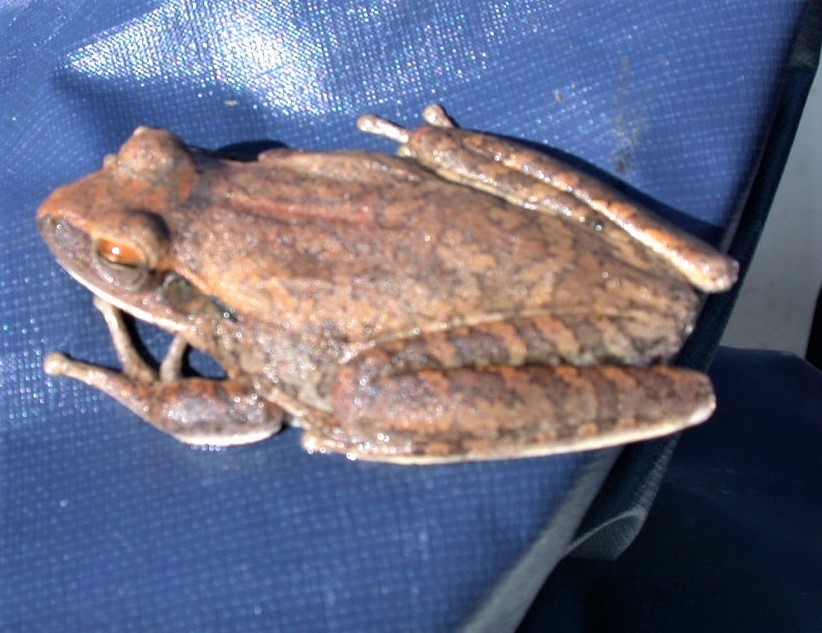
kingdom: Animalia
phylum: Chordata
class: Amphibia
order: Anura
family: Hylidae
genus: Boana
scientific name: Boana raniceps
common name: Chaco treefrog
